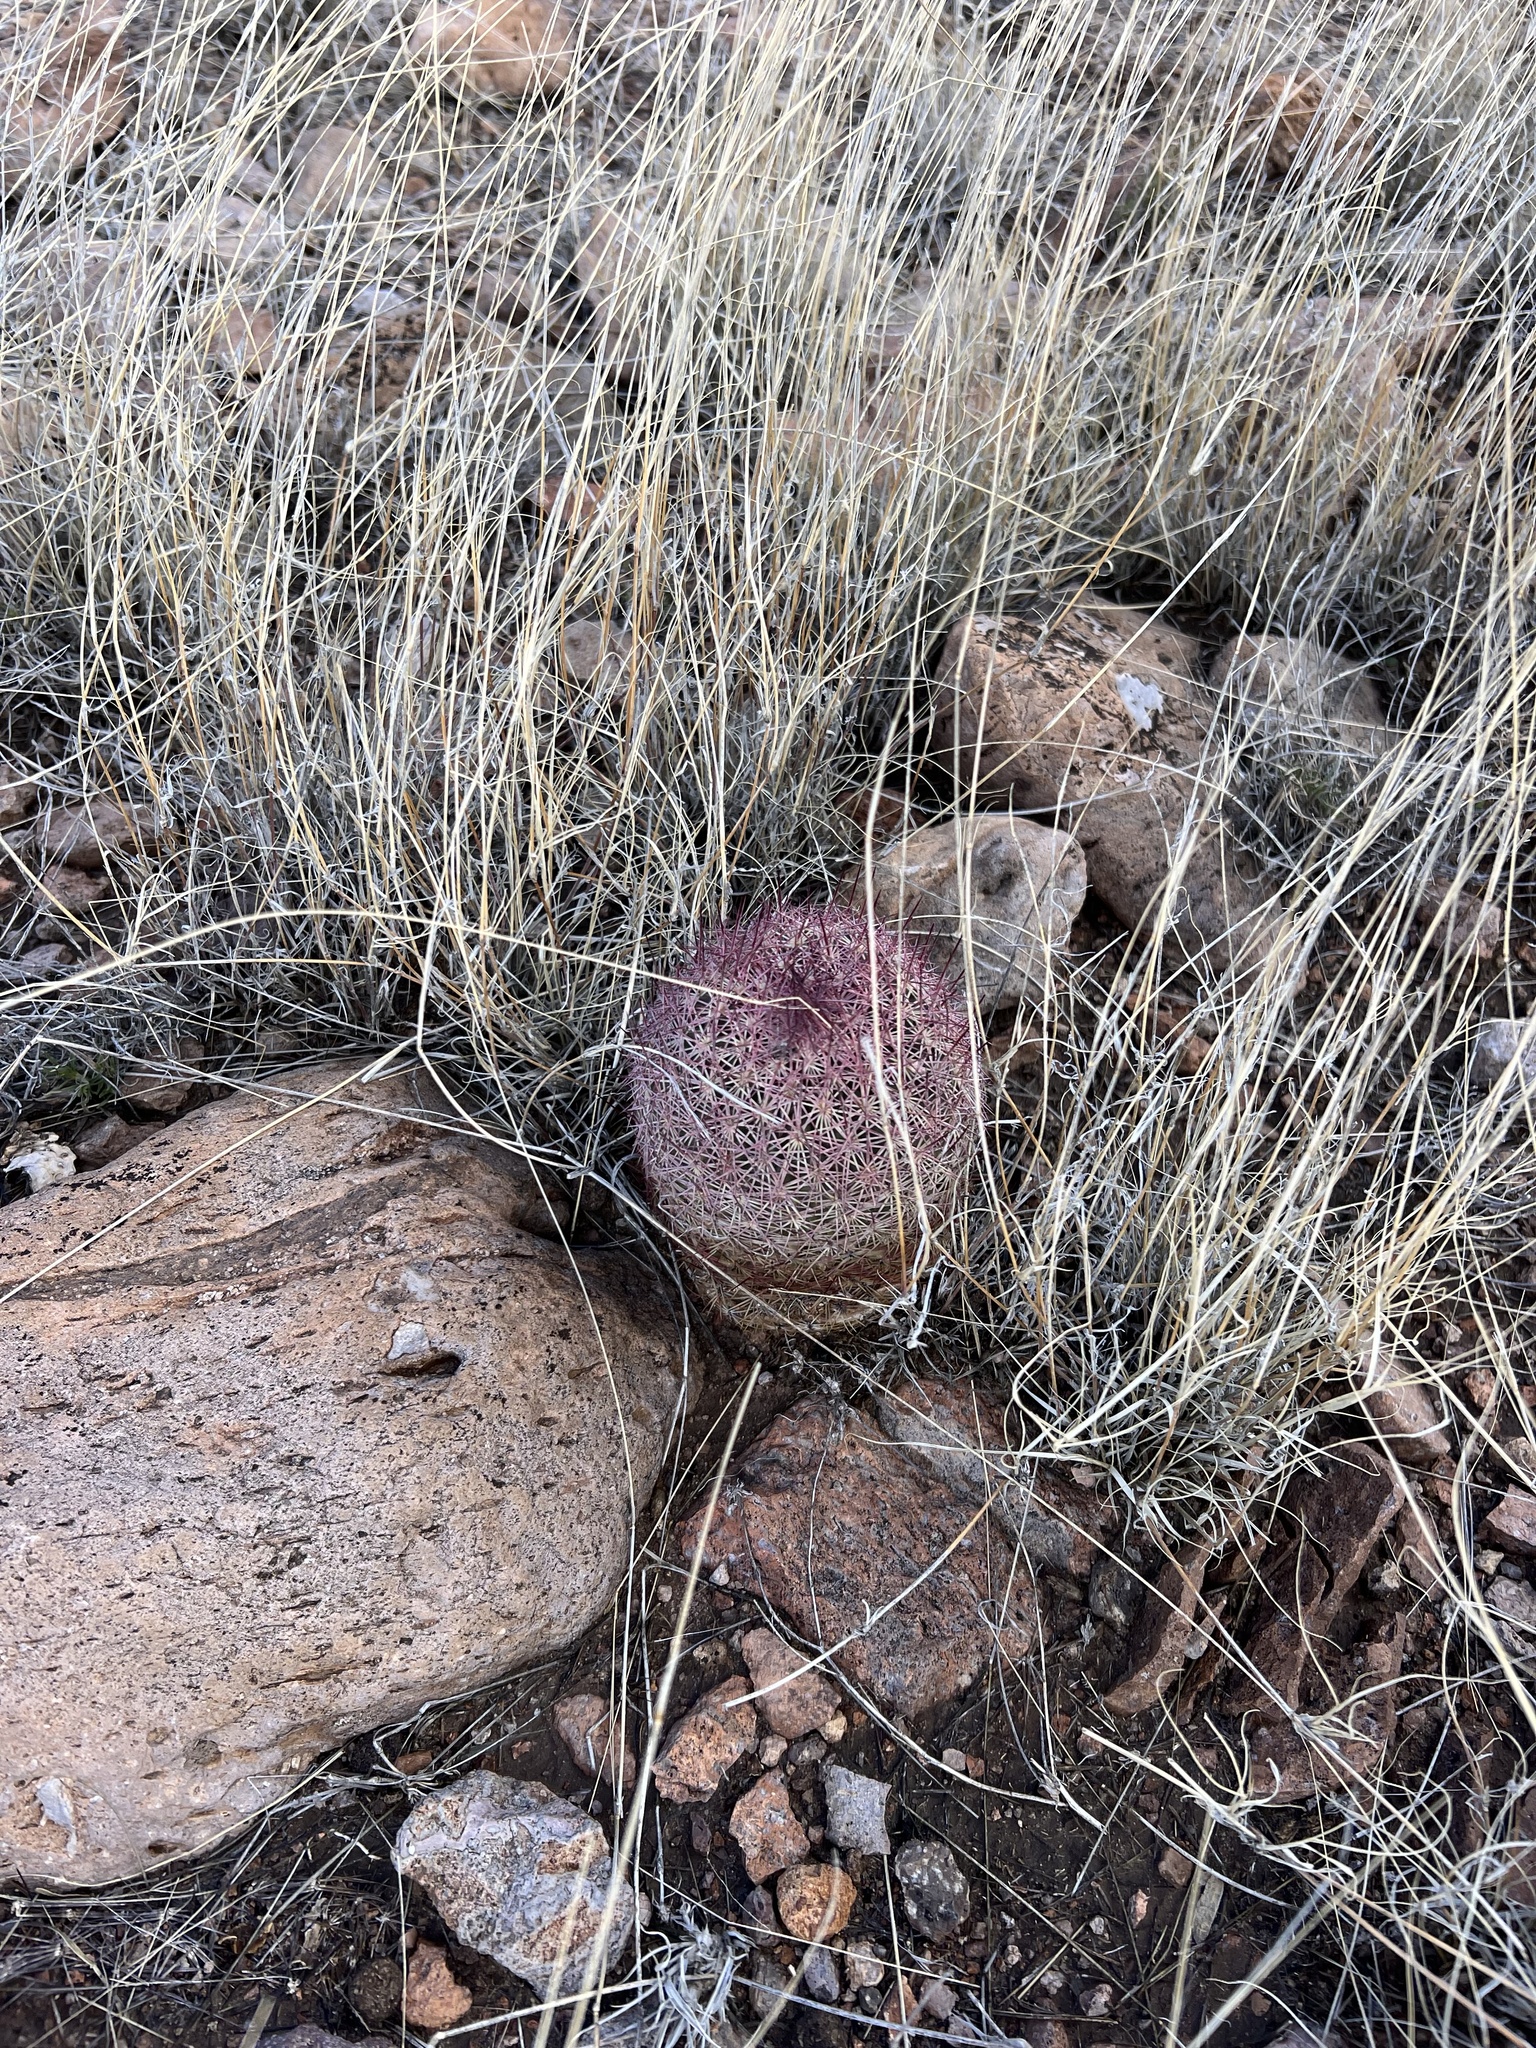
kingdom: Plantae
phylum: Tracheophyta
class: Magnoliopsida
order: Caryophyllales
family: Cactaceae
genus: Sclerocactus
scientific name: Sclerocactus johnsonii
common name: Eight-spine fishhook cactus
